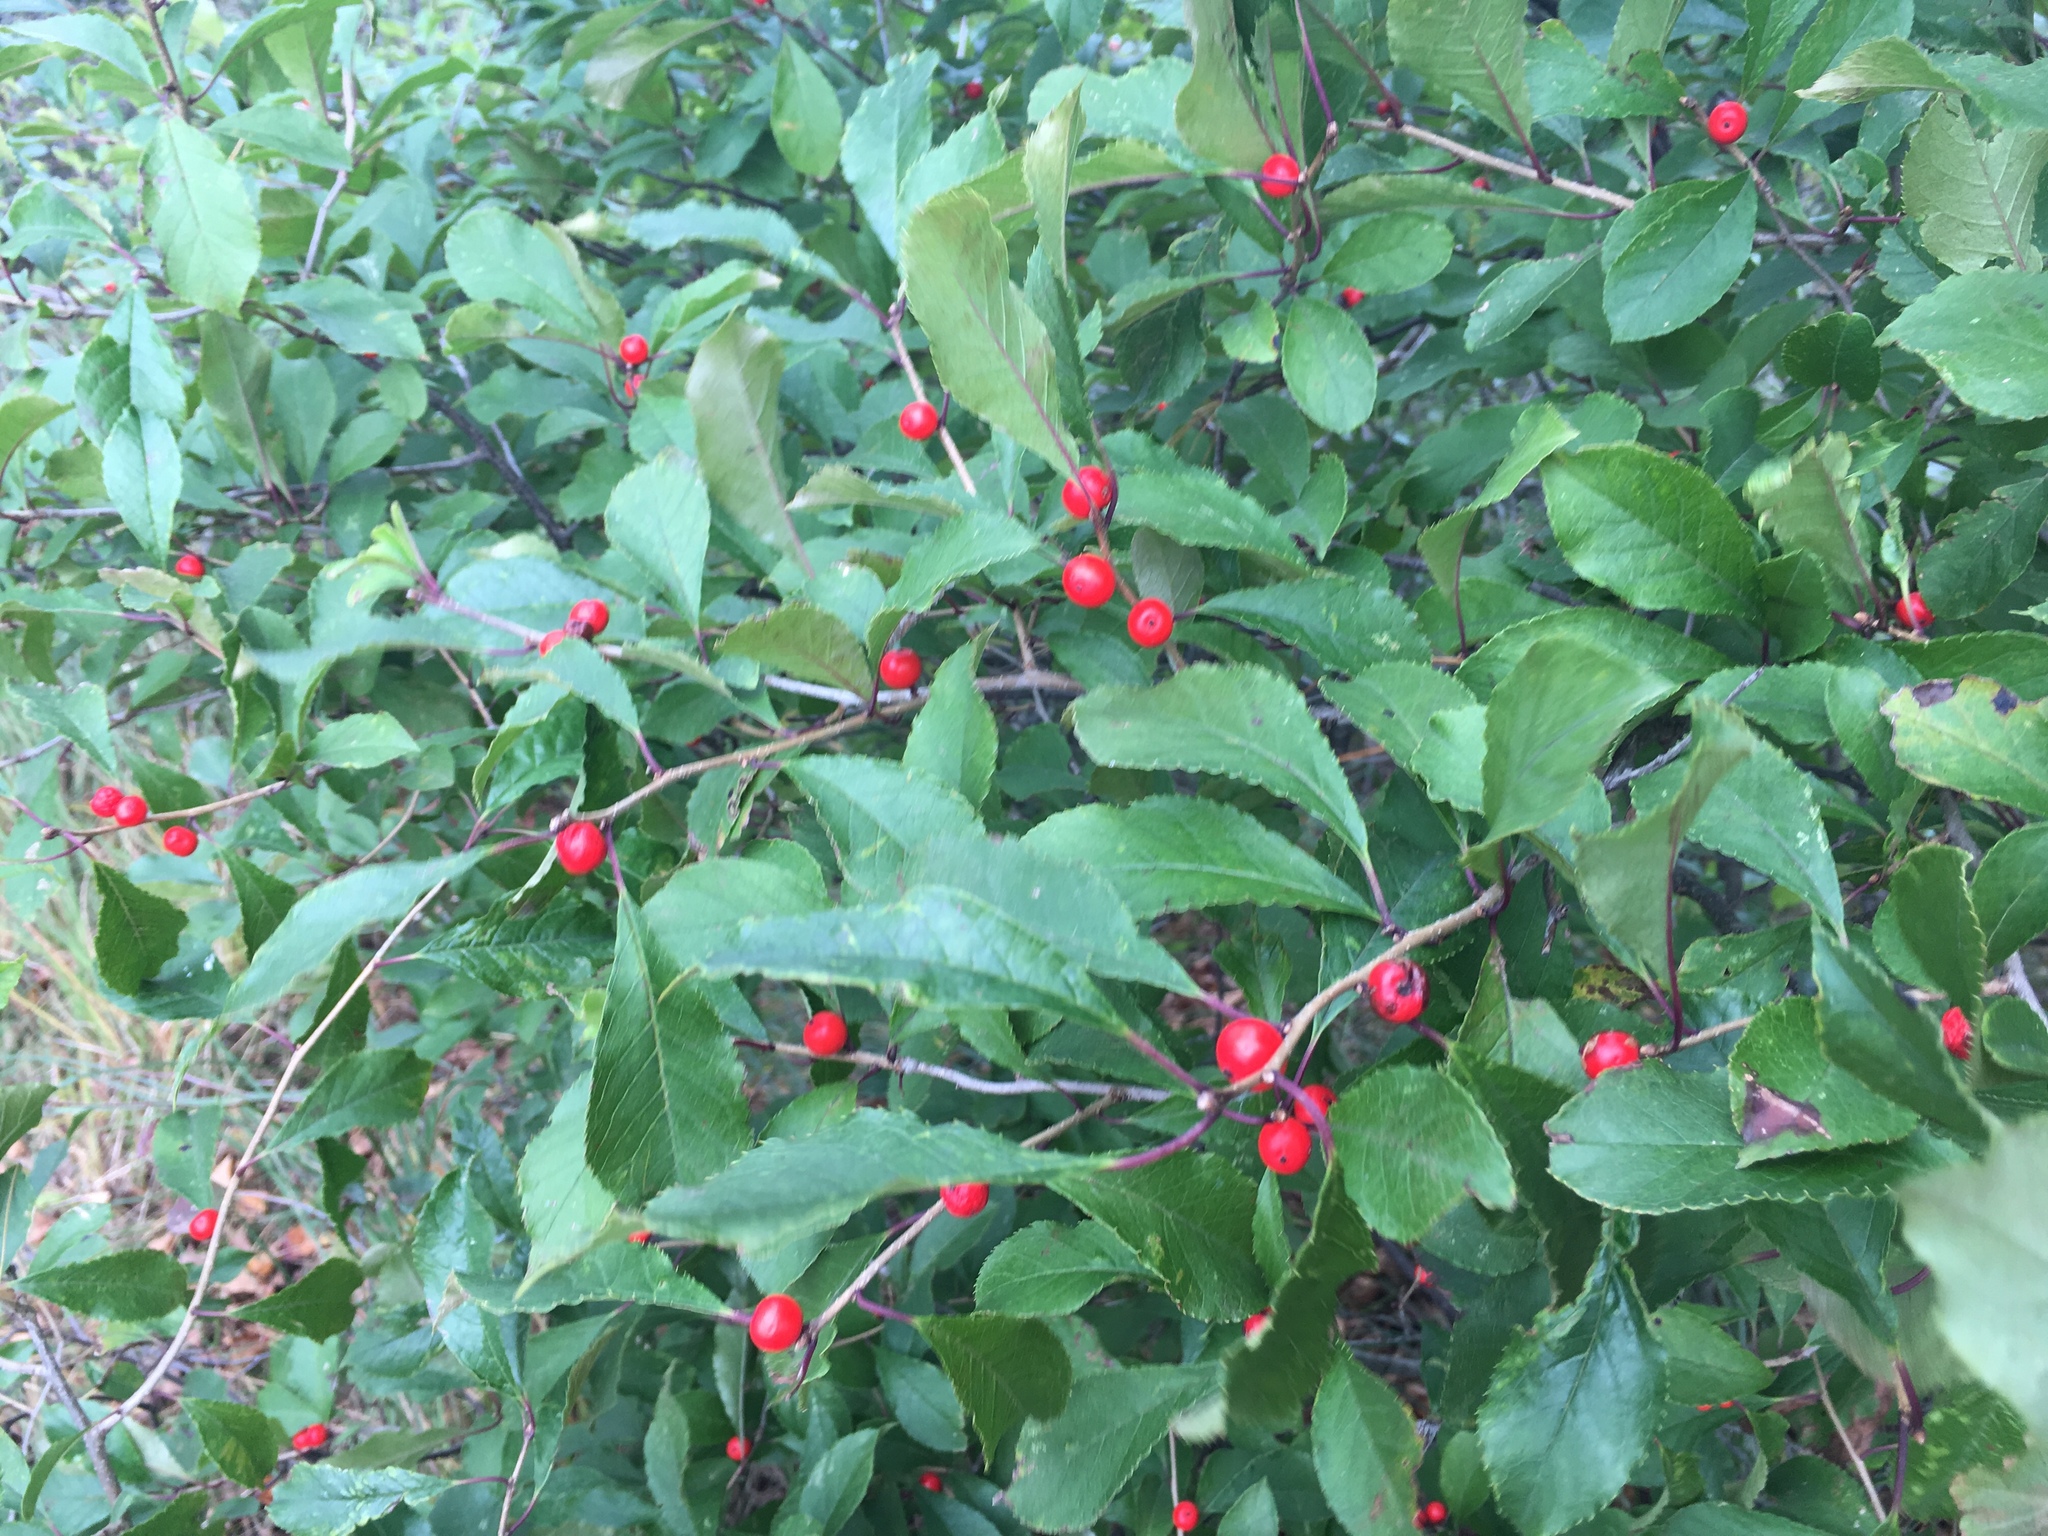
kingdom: Plantae
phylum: Tracheophyta
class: Magnoliopsida
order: Aquifoliales
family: Aquifoliaceae
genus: Ilex
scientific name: Ilex verticillata
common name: Virginia winterberry
